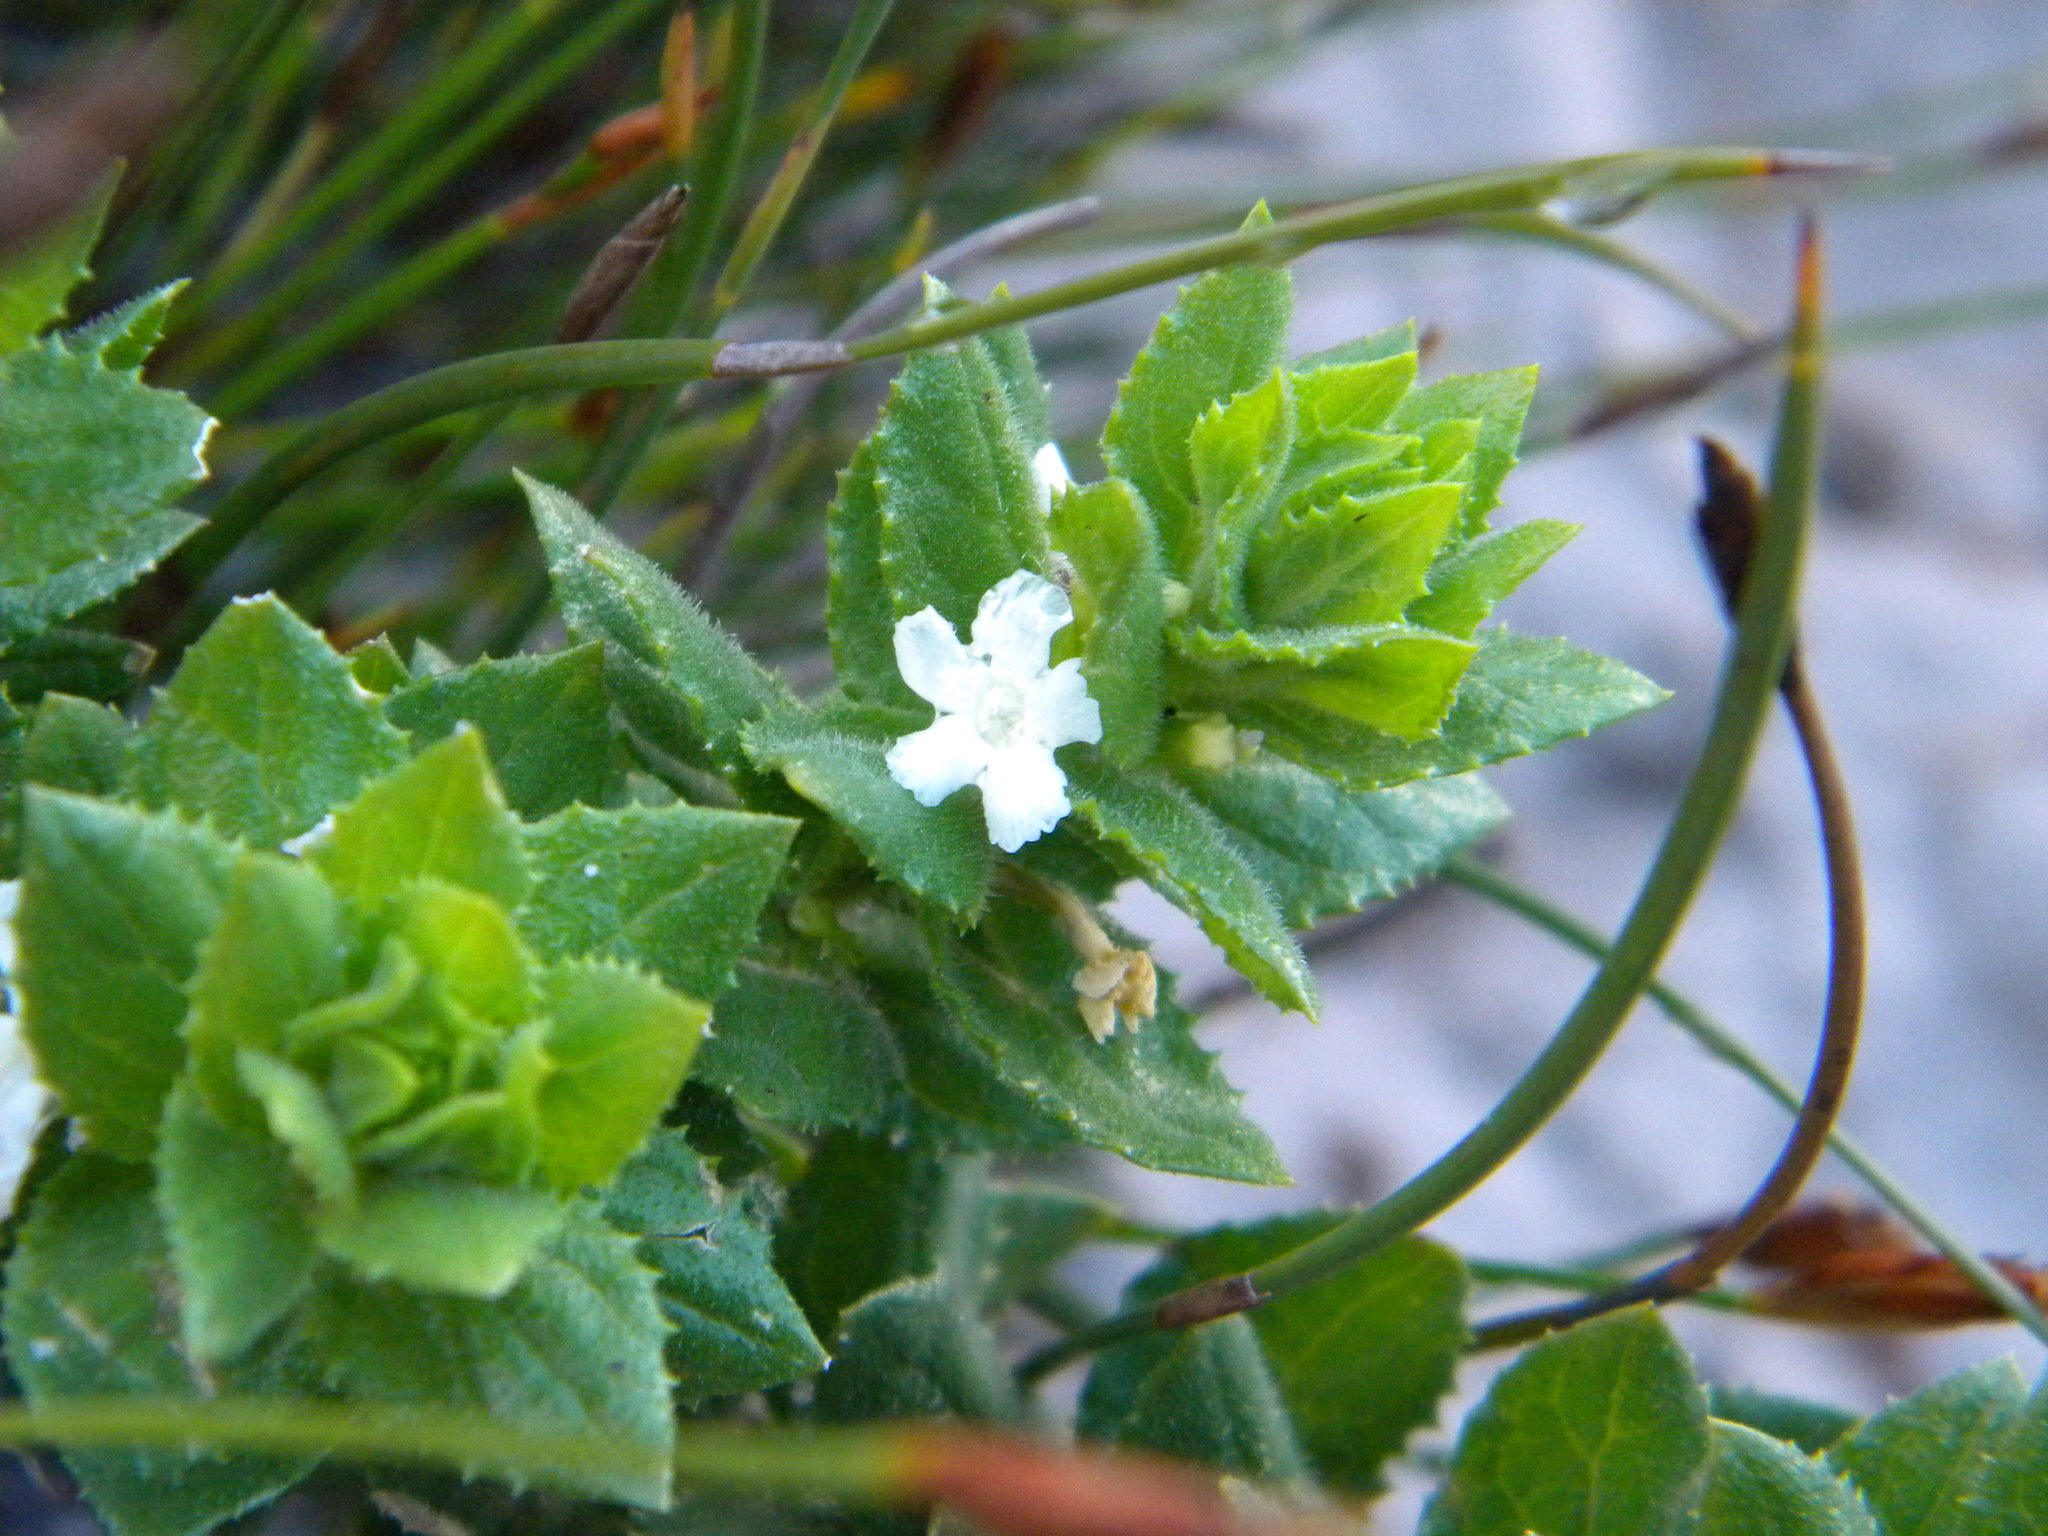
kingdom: Plantae
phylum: Tracheophyta
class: Magnoliopsida
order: Lamiales
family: Scrophulariaceae
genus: Oftia
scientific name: Oftia africana
